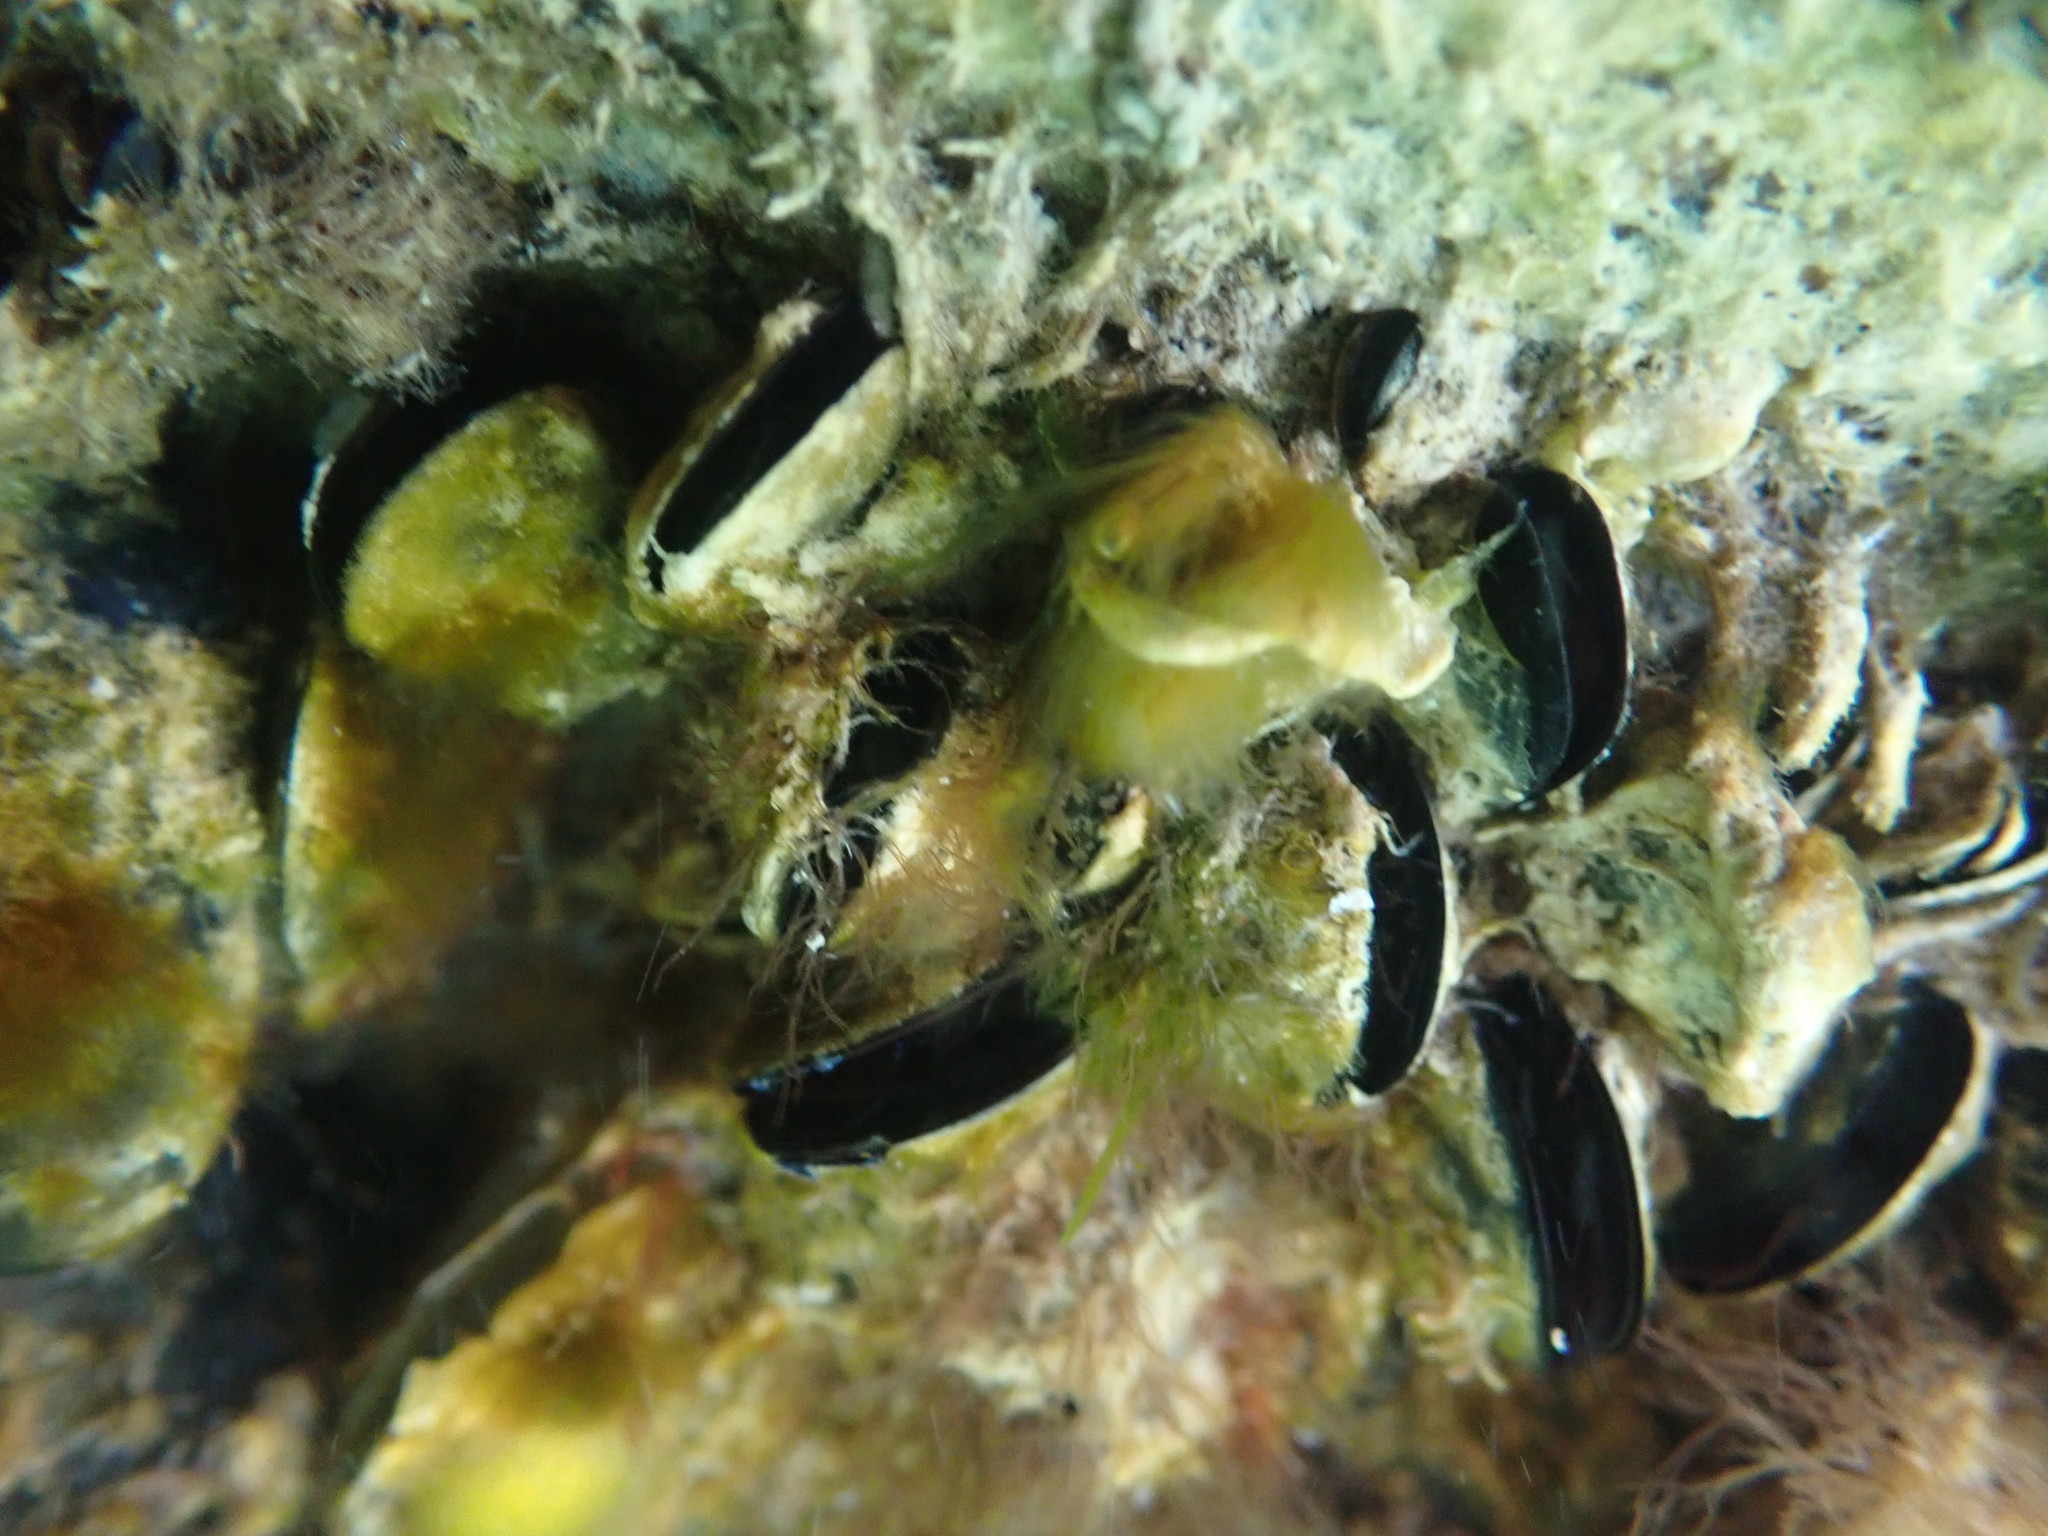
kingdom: Animalia
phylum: Mollusca
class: Bivalvia
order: Mytilida
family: Mytilidae
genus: Mytilus
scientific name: Mytilus planulatus
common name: Australian mussel
